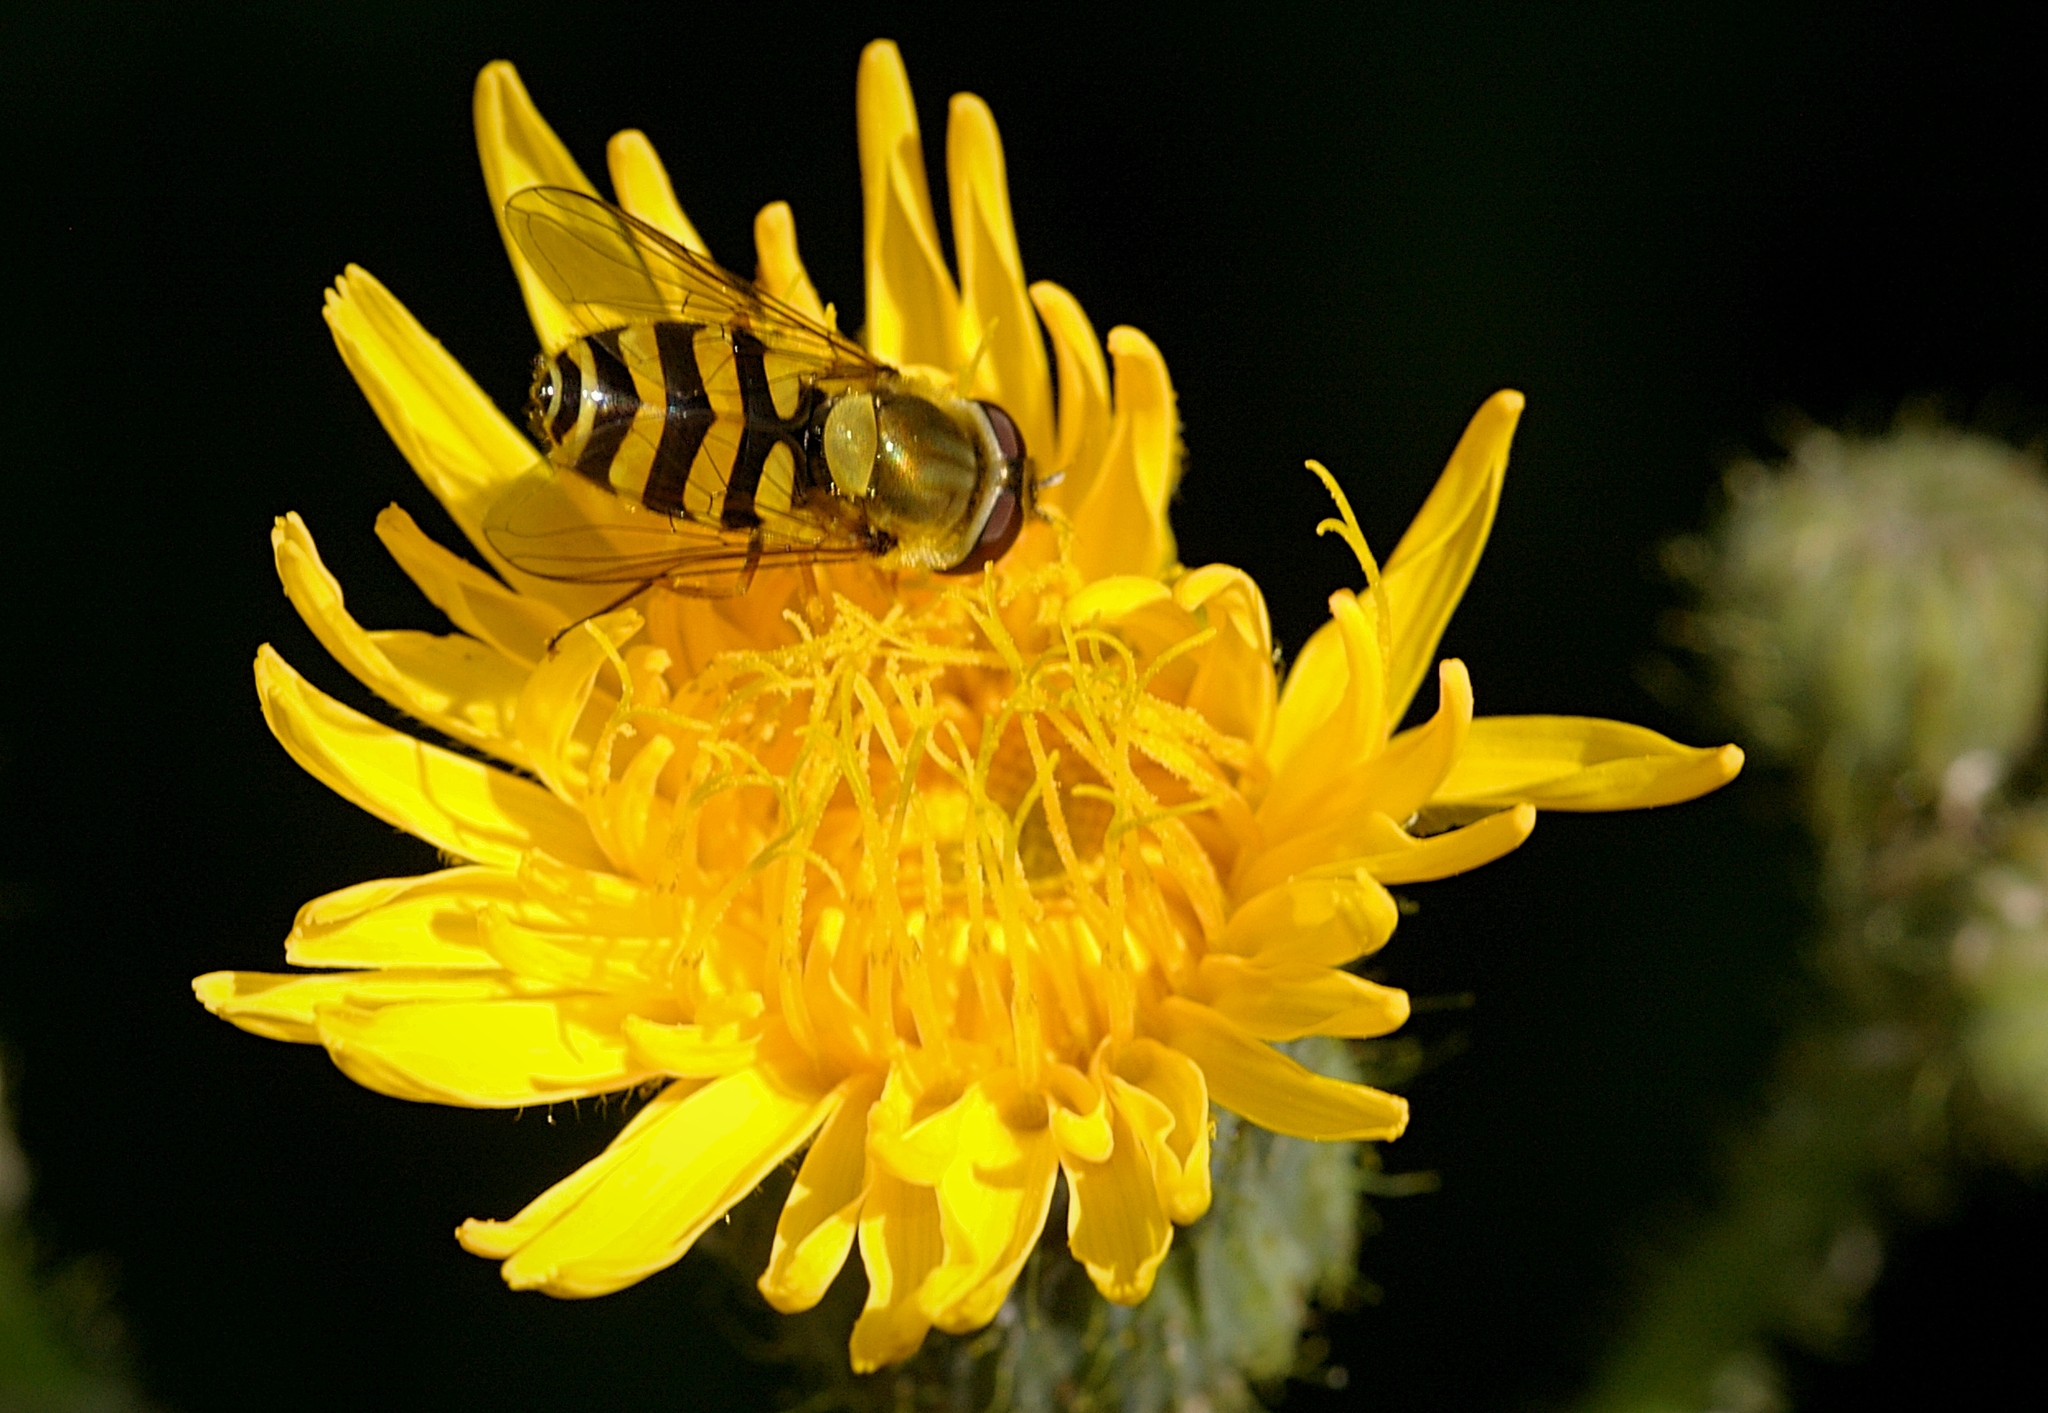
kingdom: Animalia
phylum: Arthropoda
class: Insecta
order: Diptera
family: Syrphidae
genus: Syrphus
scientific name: Syrphus
